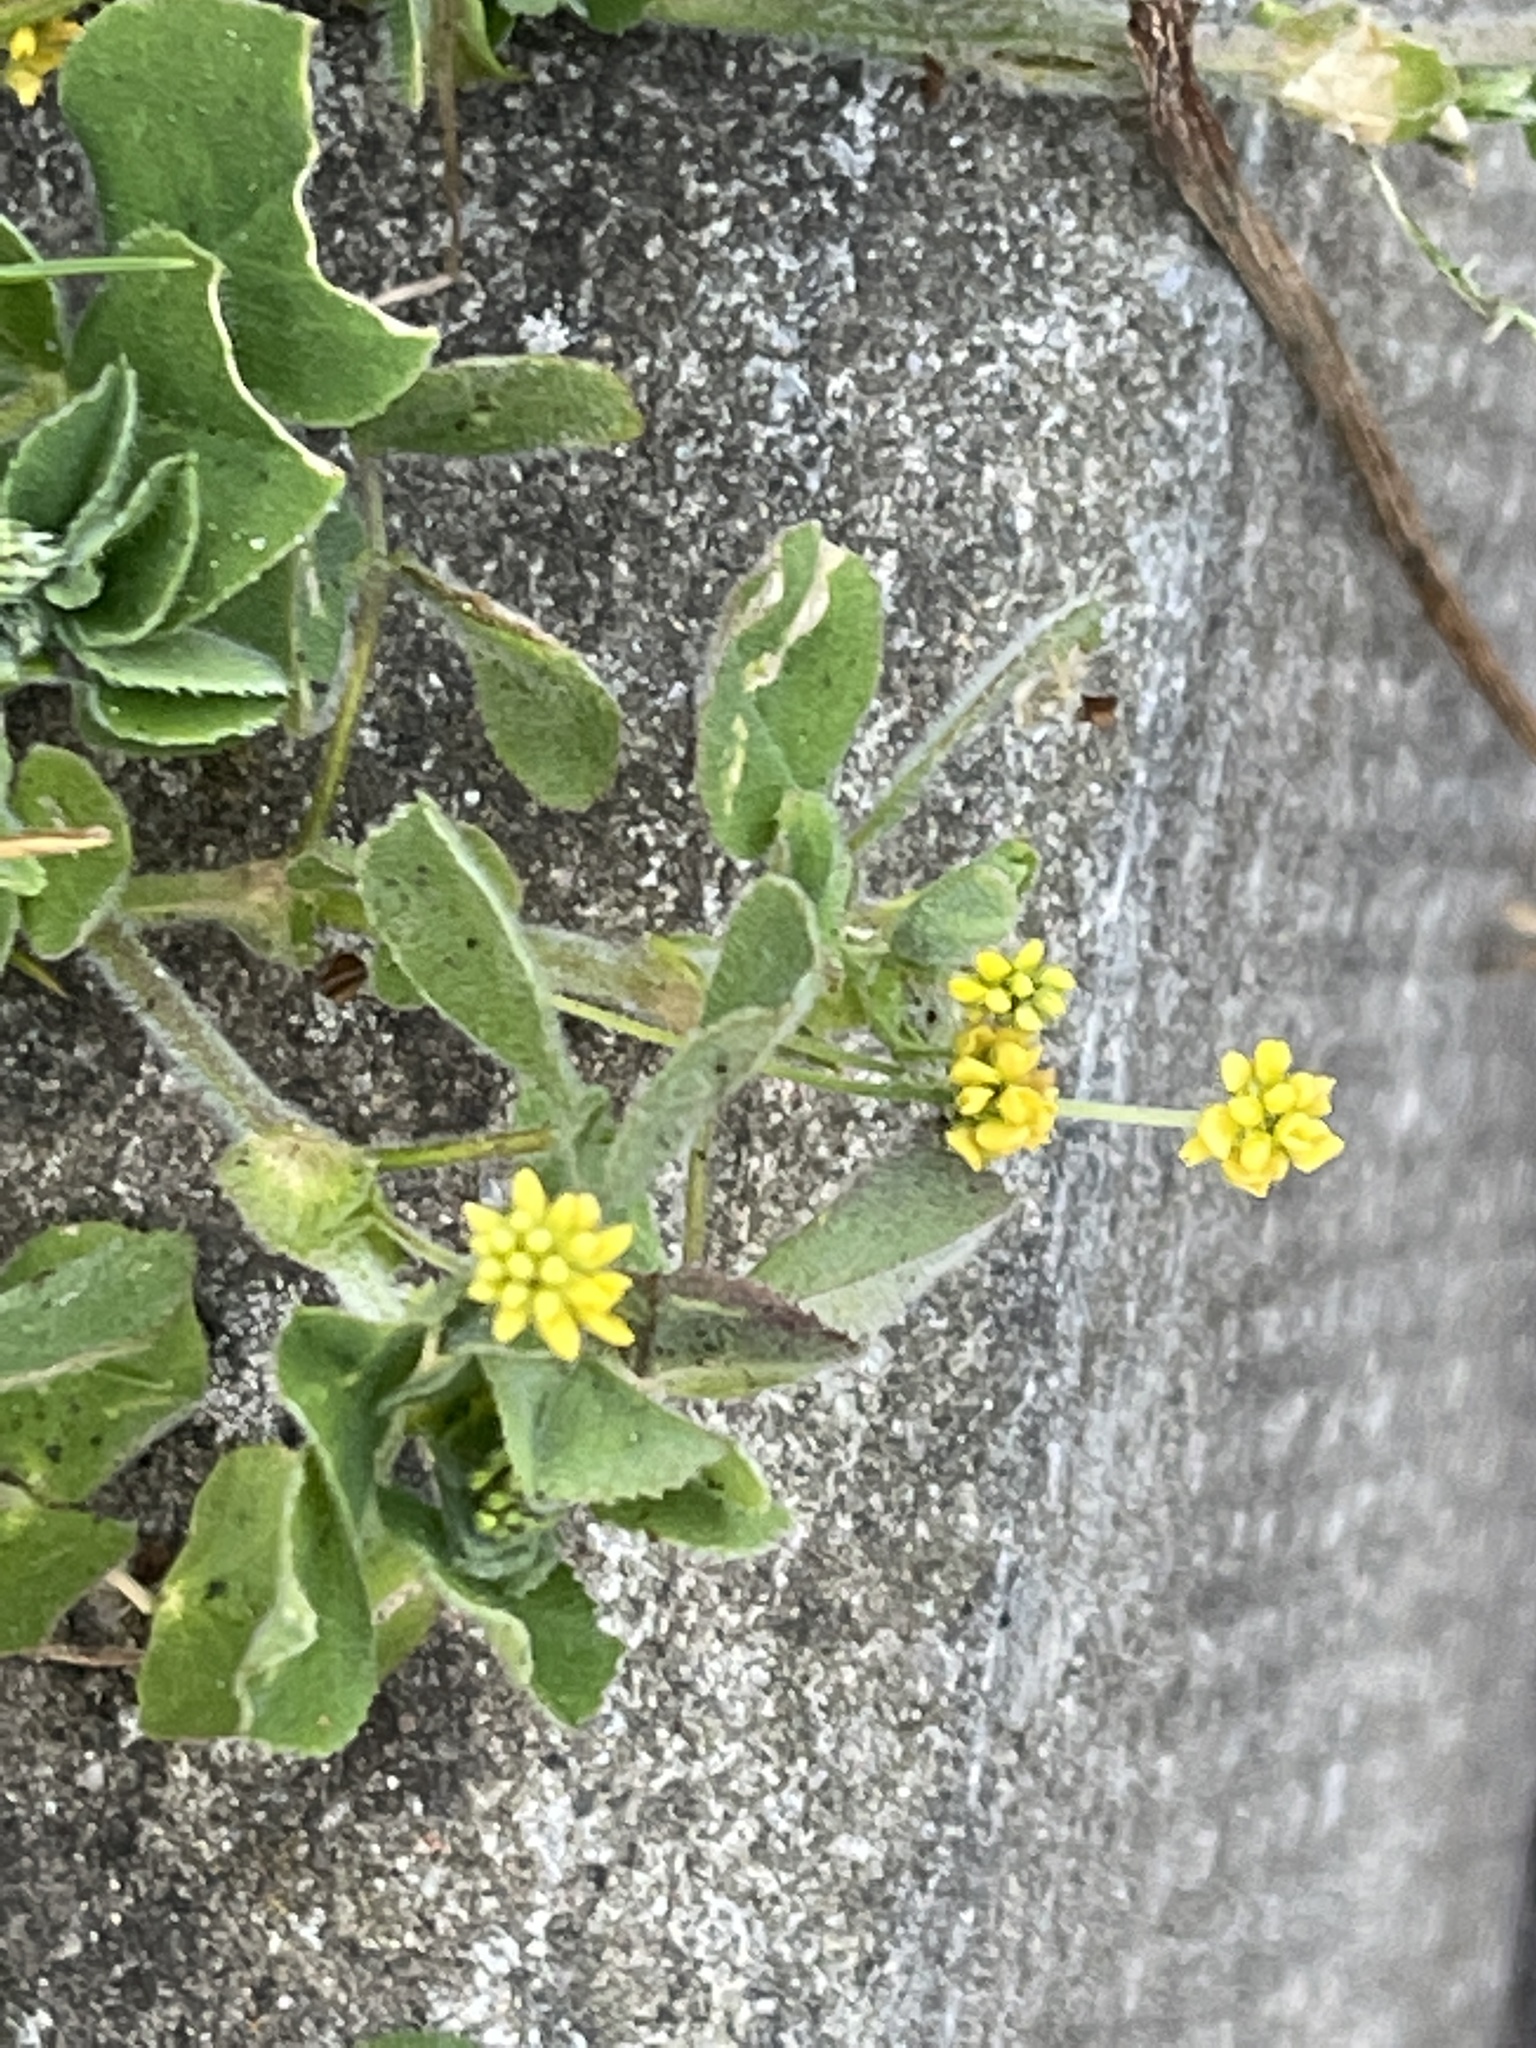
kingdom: Plantae
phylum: Tracheophyta
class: Magnoliopsida
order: Fabales
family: Fabaceae
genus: Medicago
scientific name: Medicago lupulina
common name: Black medick
